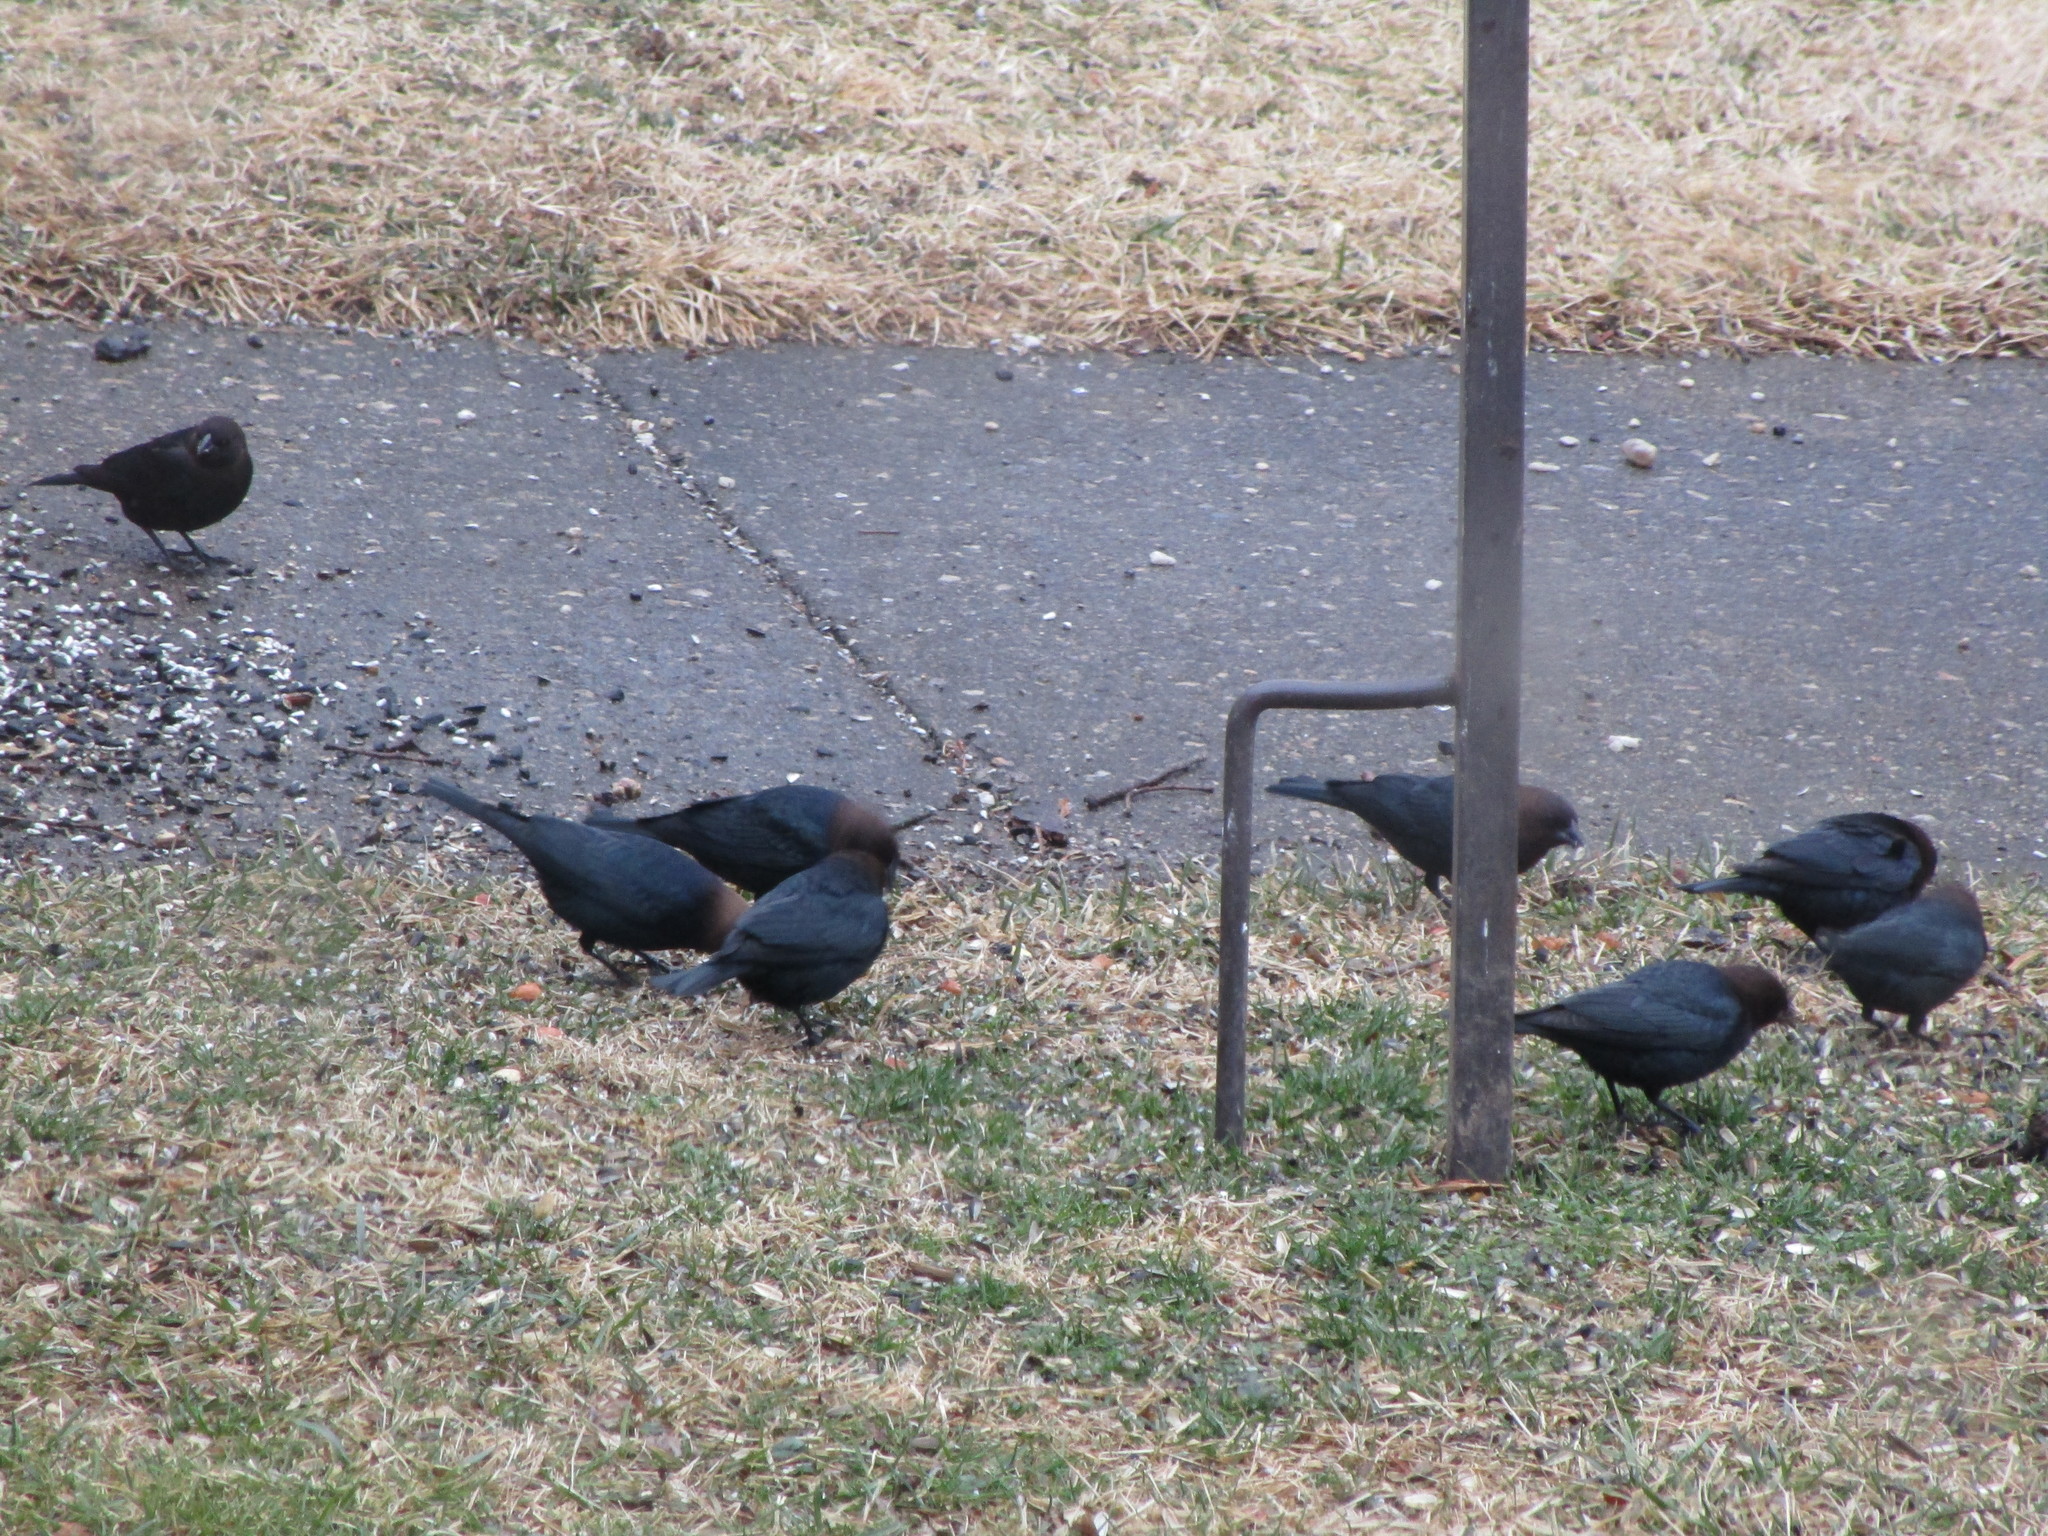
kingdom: Animalia
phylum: Chordata
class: Aves
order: Passeriformes
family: Icteridae
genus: Molothrus
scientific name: Molothrus ater
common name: Brown-headed cowbird
